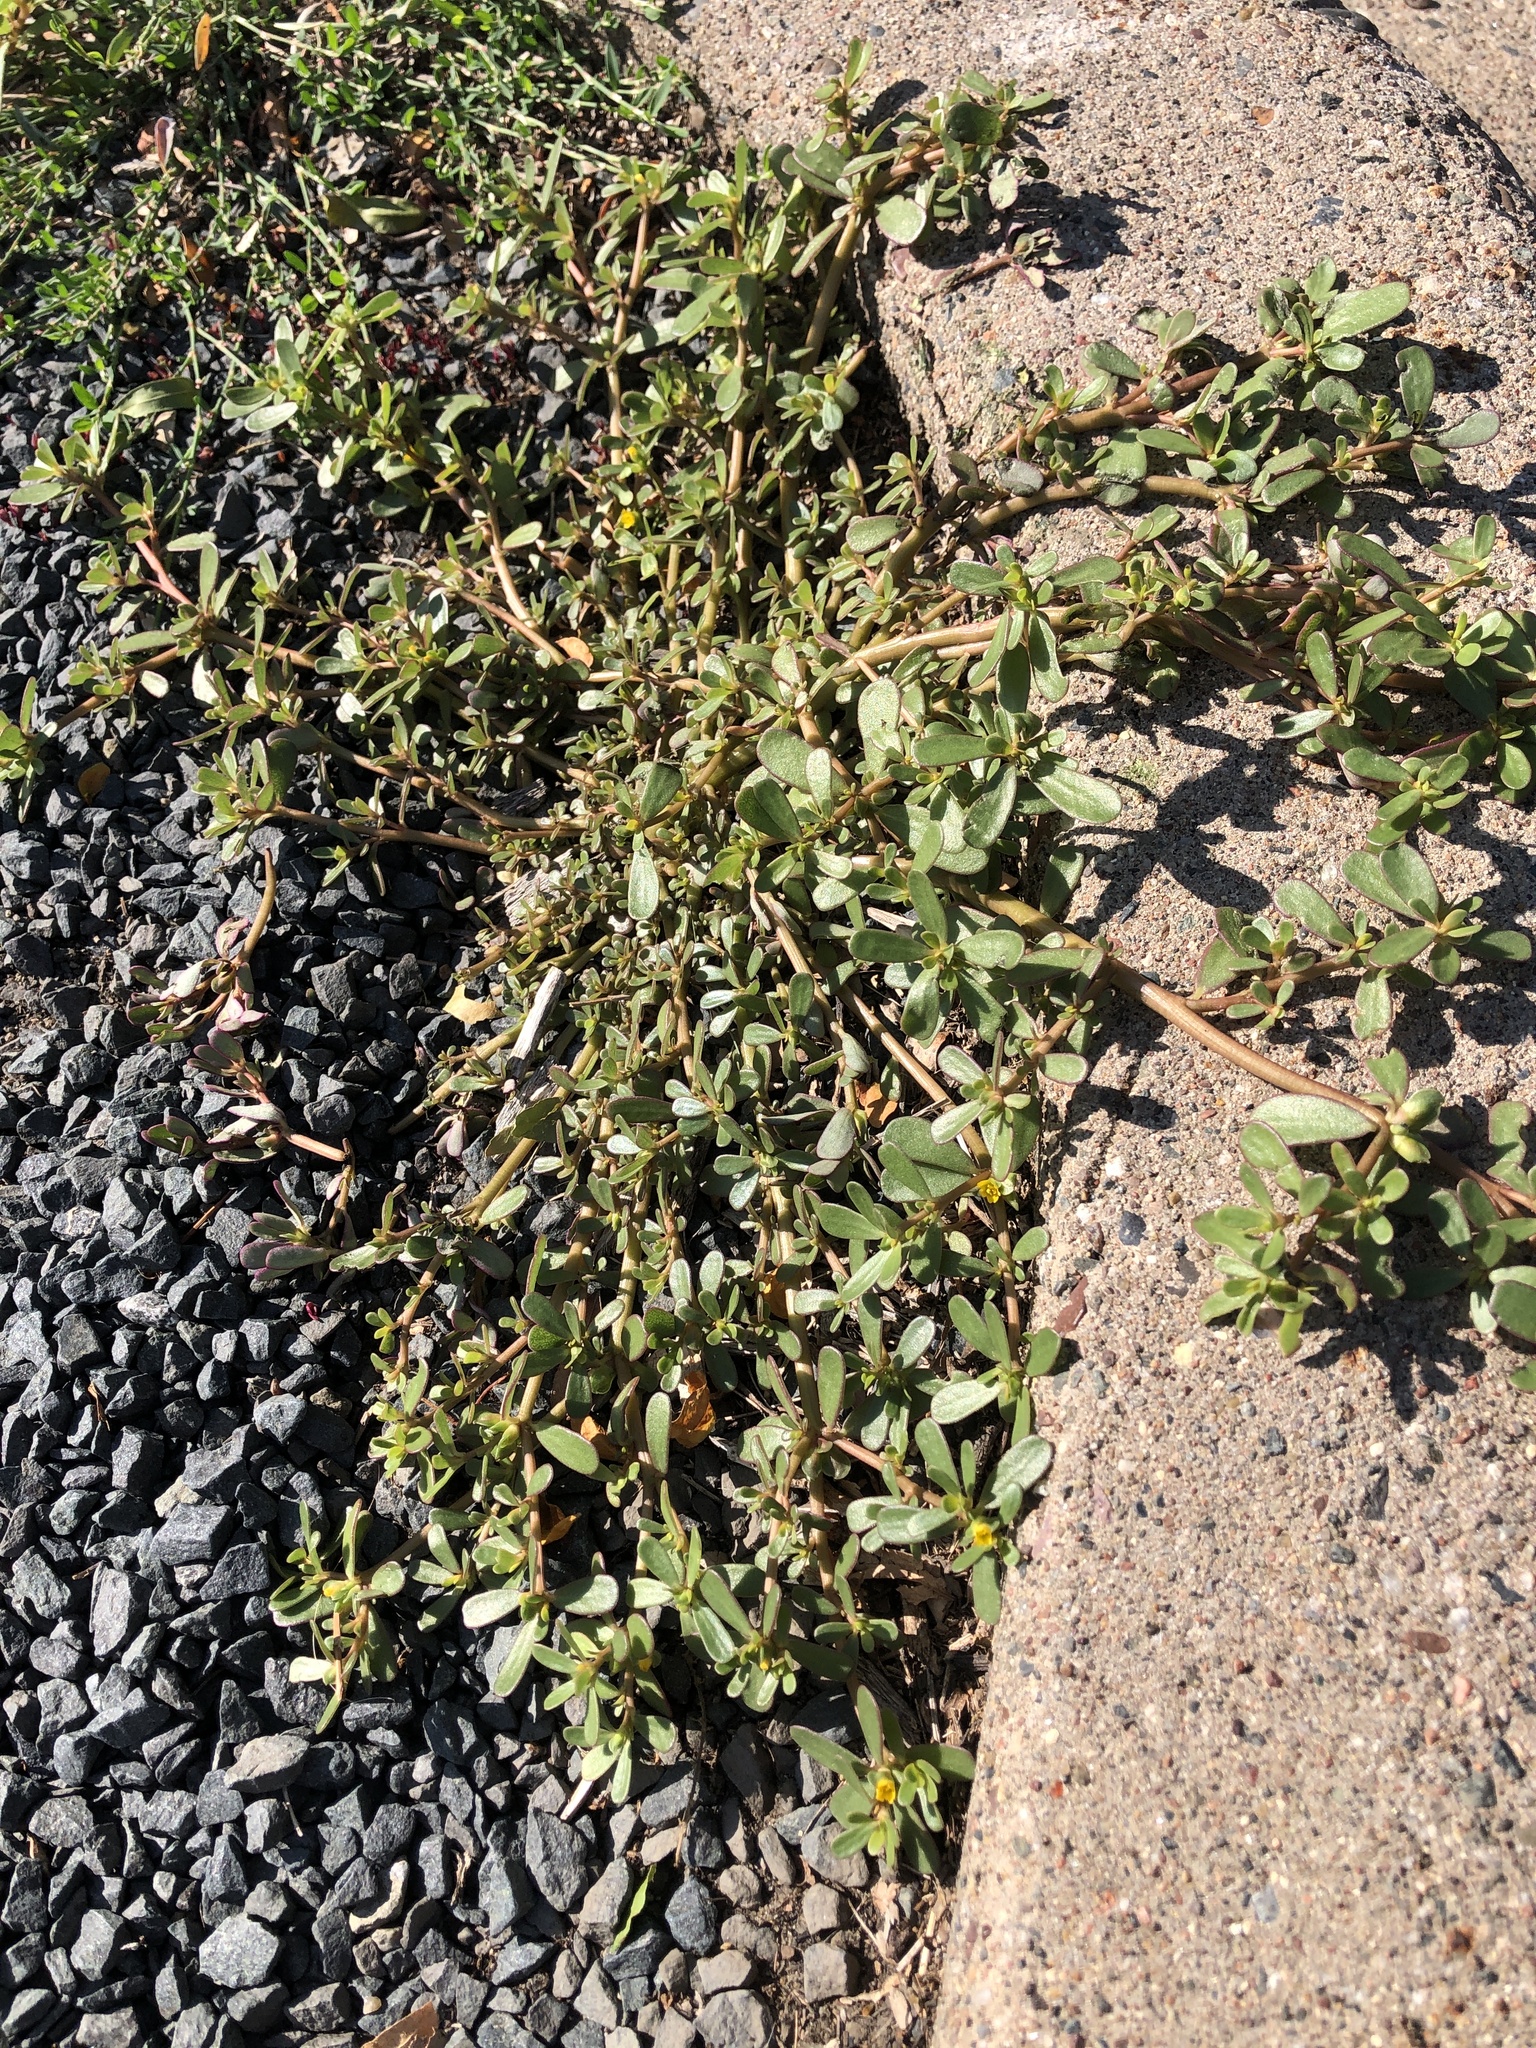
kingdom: Plantae
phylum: Tracheophyta
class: Magnoliopsida
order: Caryophyllales
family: Portulacaceae
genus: Portulaca
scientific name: Portulaca oleracea
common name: Common purslane
